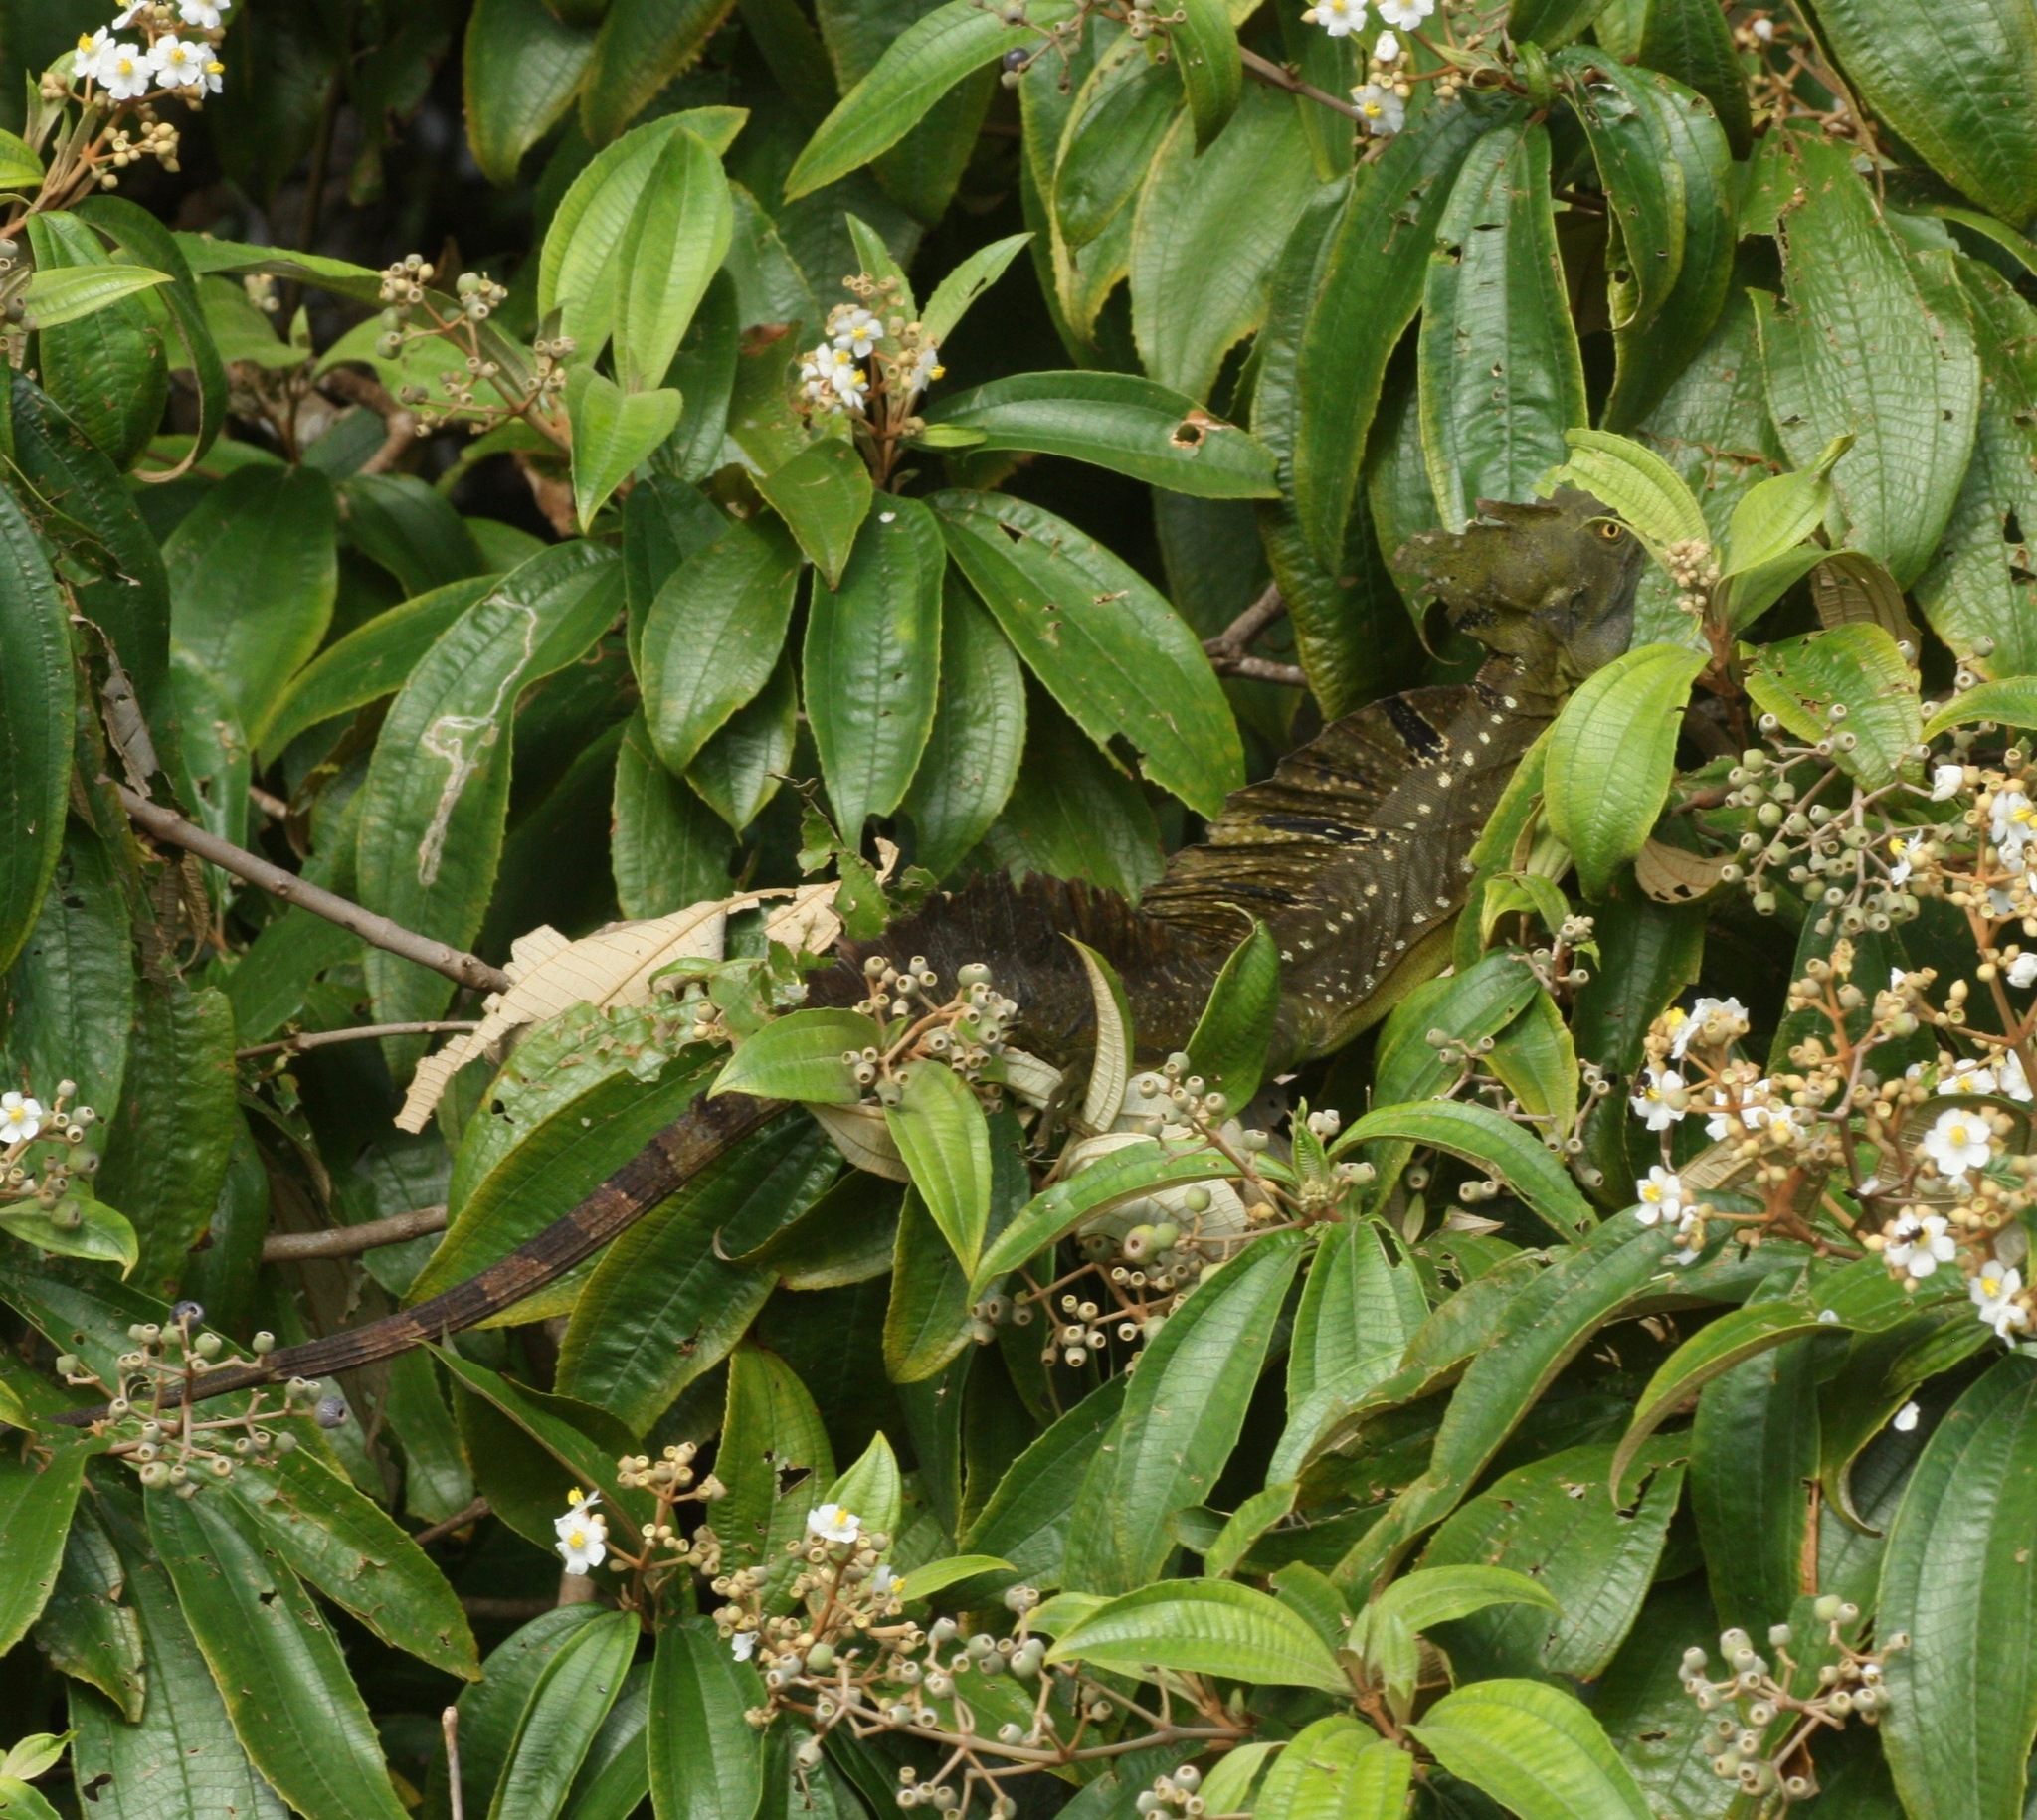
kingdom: Animalia
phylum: Chordata
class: Squamata
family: Corytophanidae
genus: Basiliscus
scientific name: Basiliscus plumifrons
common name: Green basilisk
